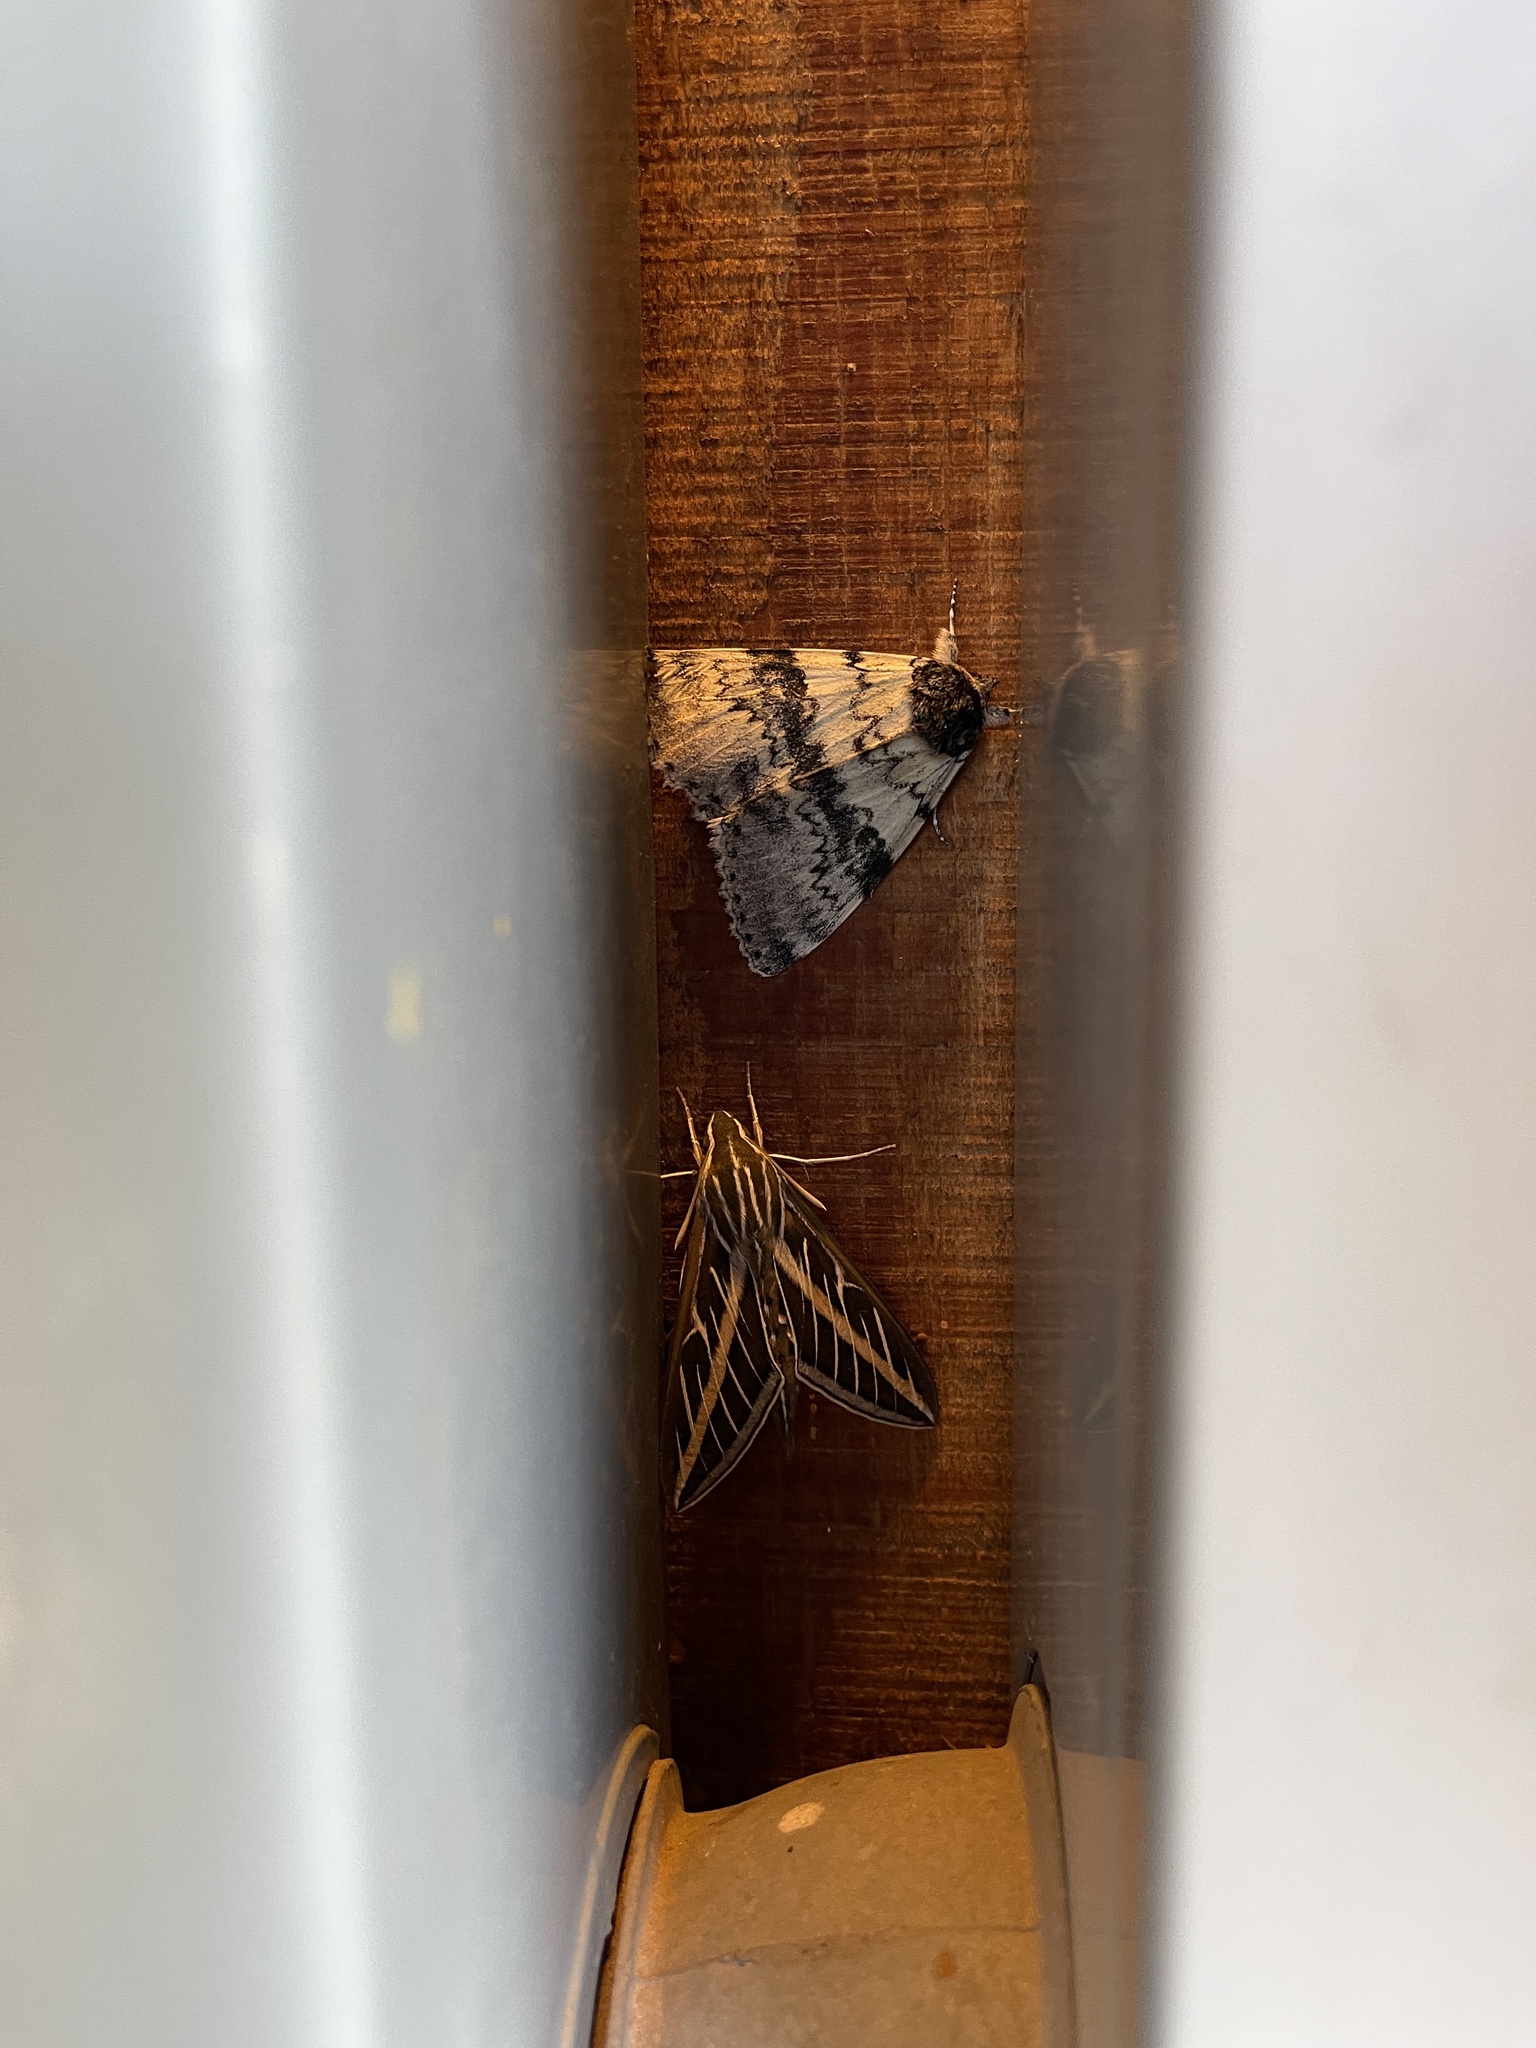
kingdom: Animalia
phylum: Arthropoda
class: Insecta
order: Lepidoptera
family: Sphingidae
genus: Hyles
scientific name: Hyles lineata
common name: White-lined sphinx
